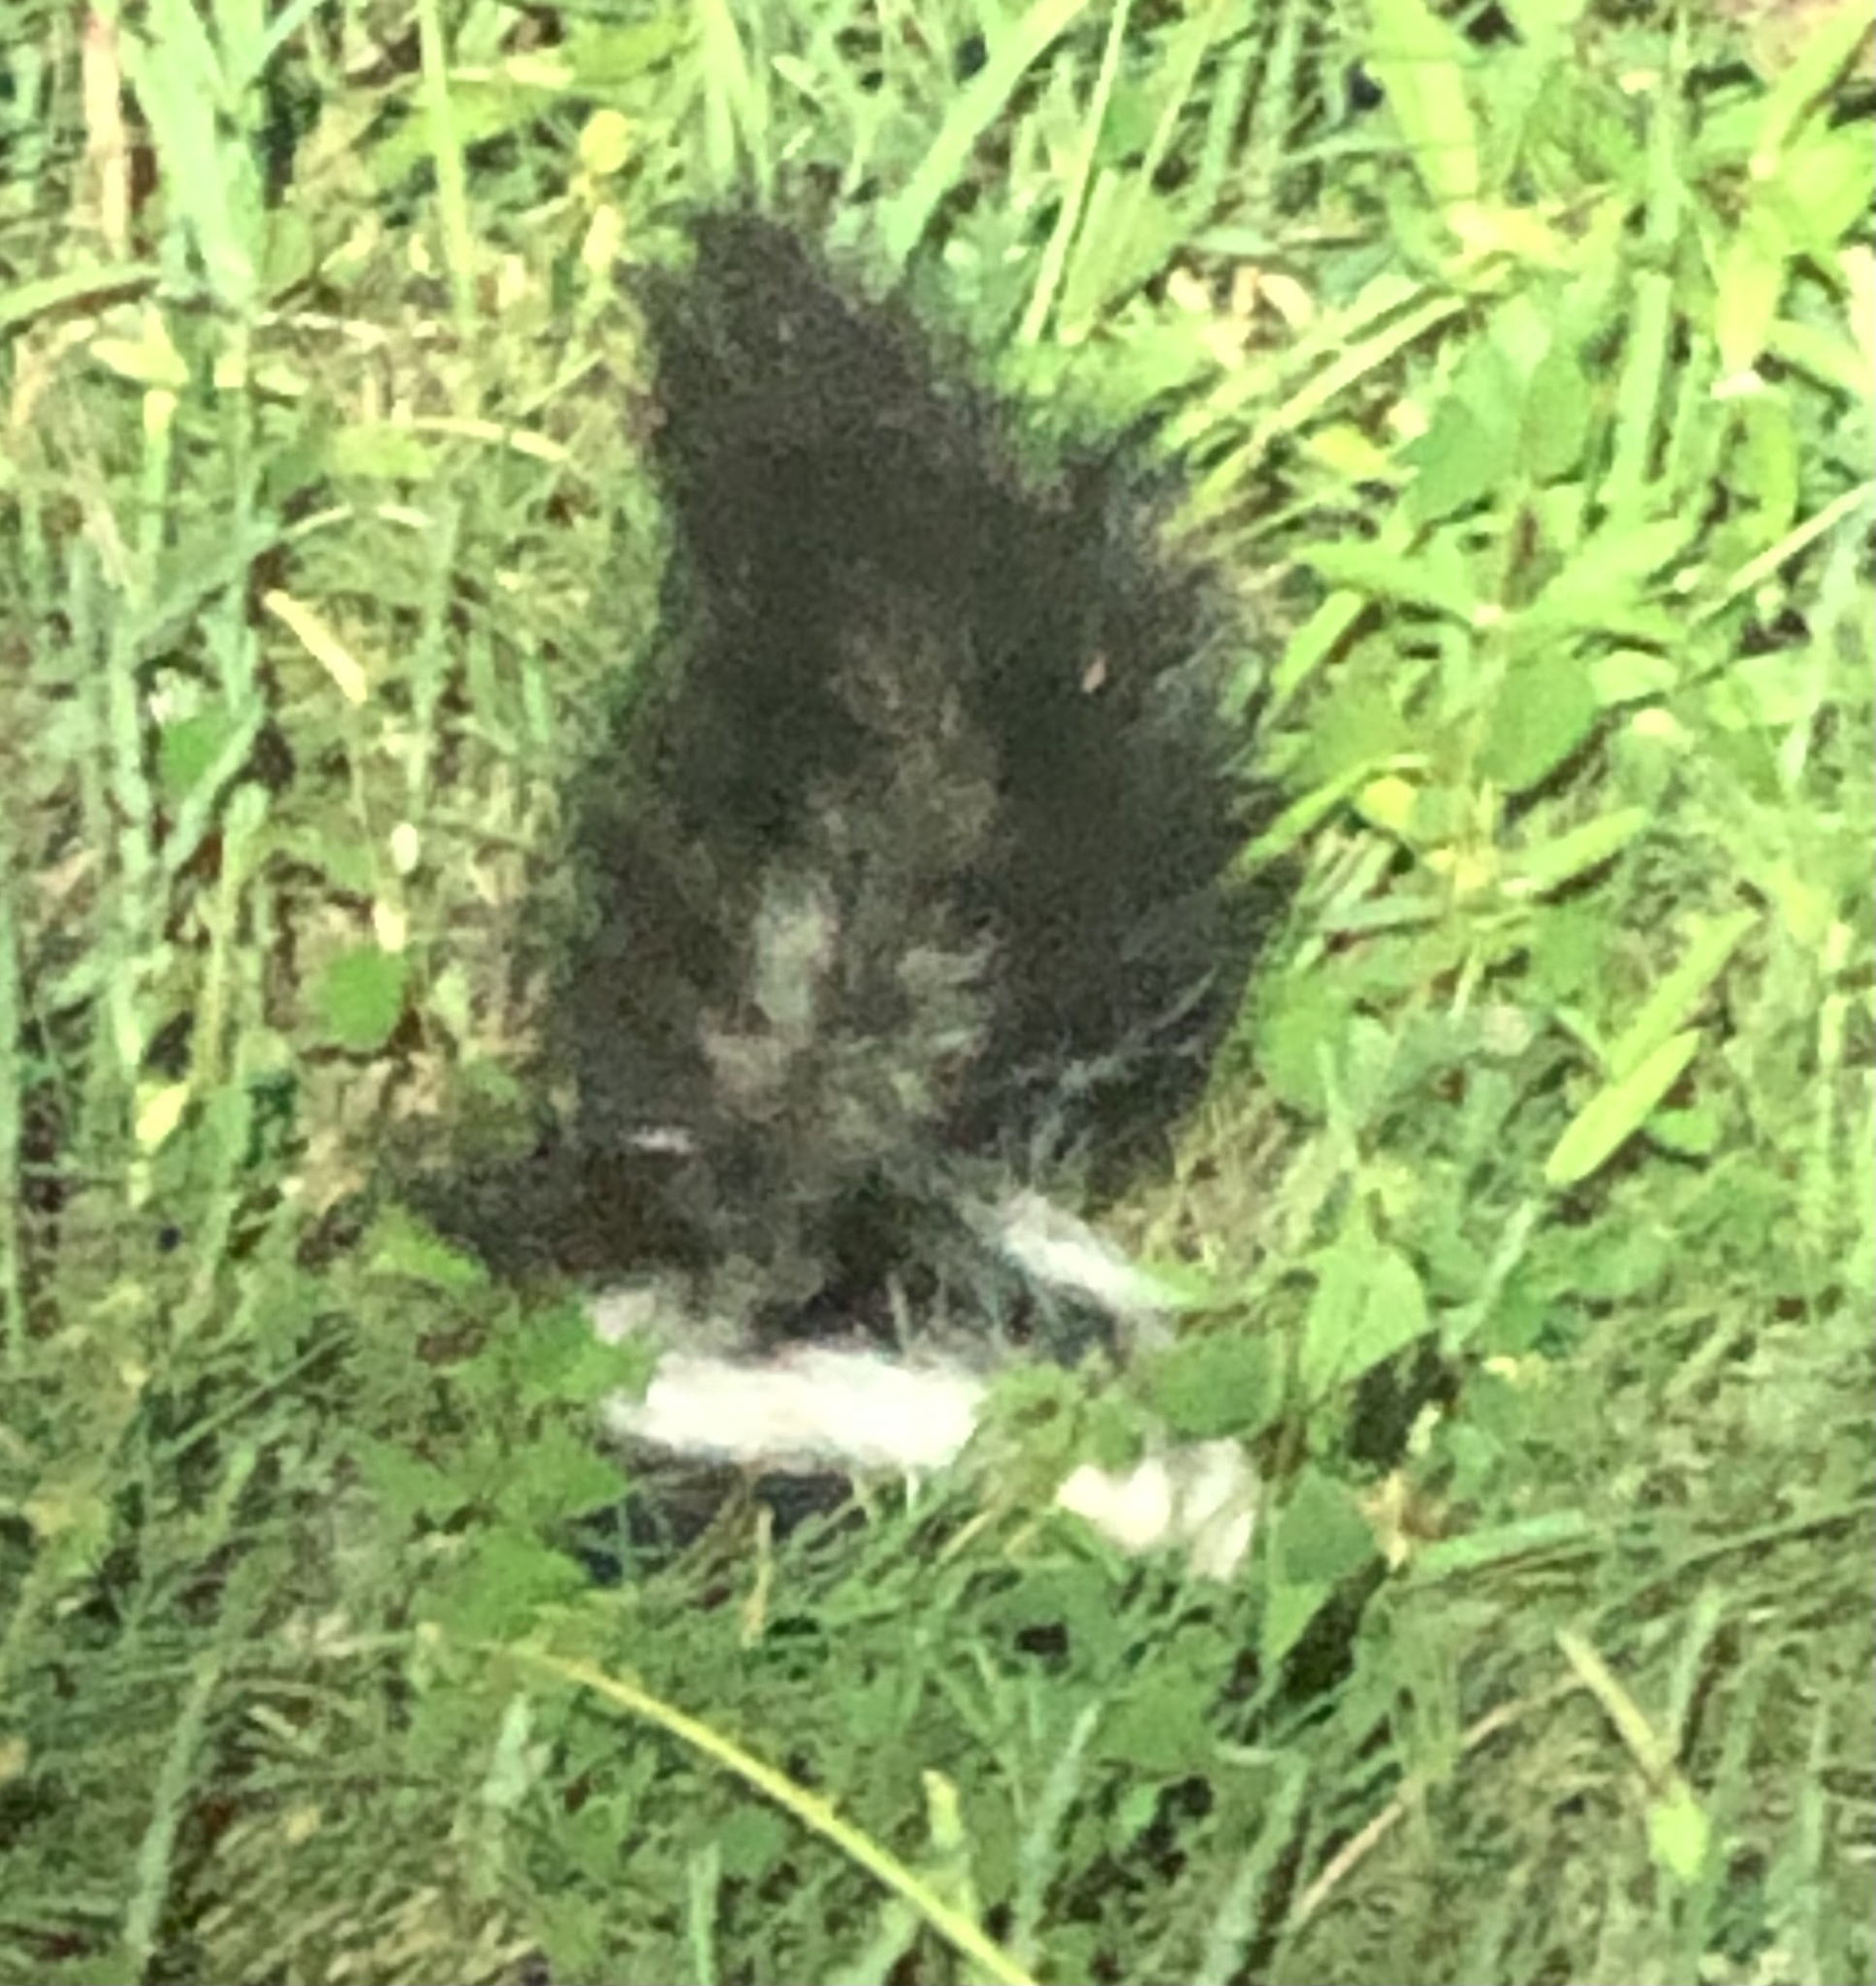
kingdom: Animalia
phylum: Chordata
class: Mammalia
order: Carnivora
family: Mephitidae
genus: Mephitis
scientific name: Mephitis mephitis
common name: Striped skunk
